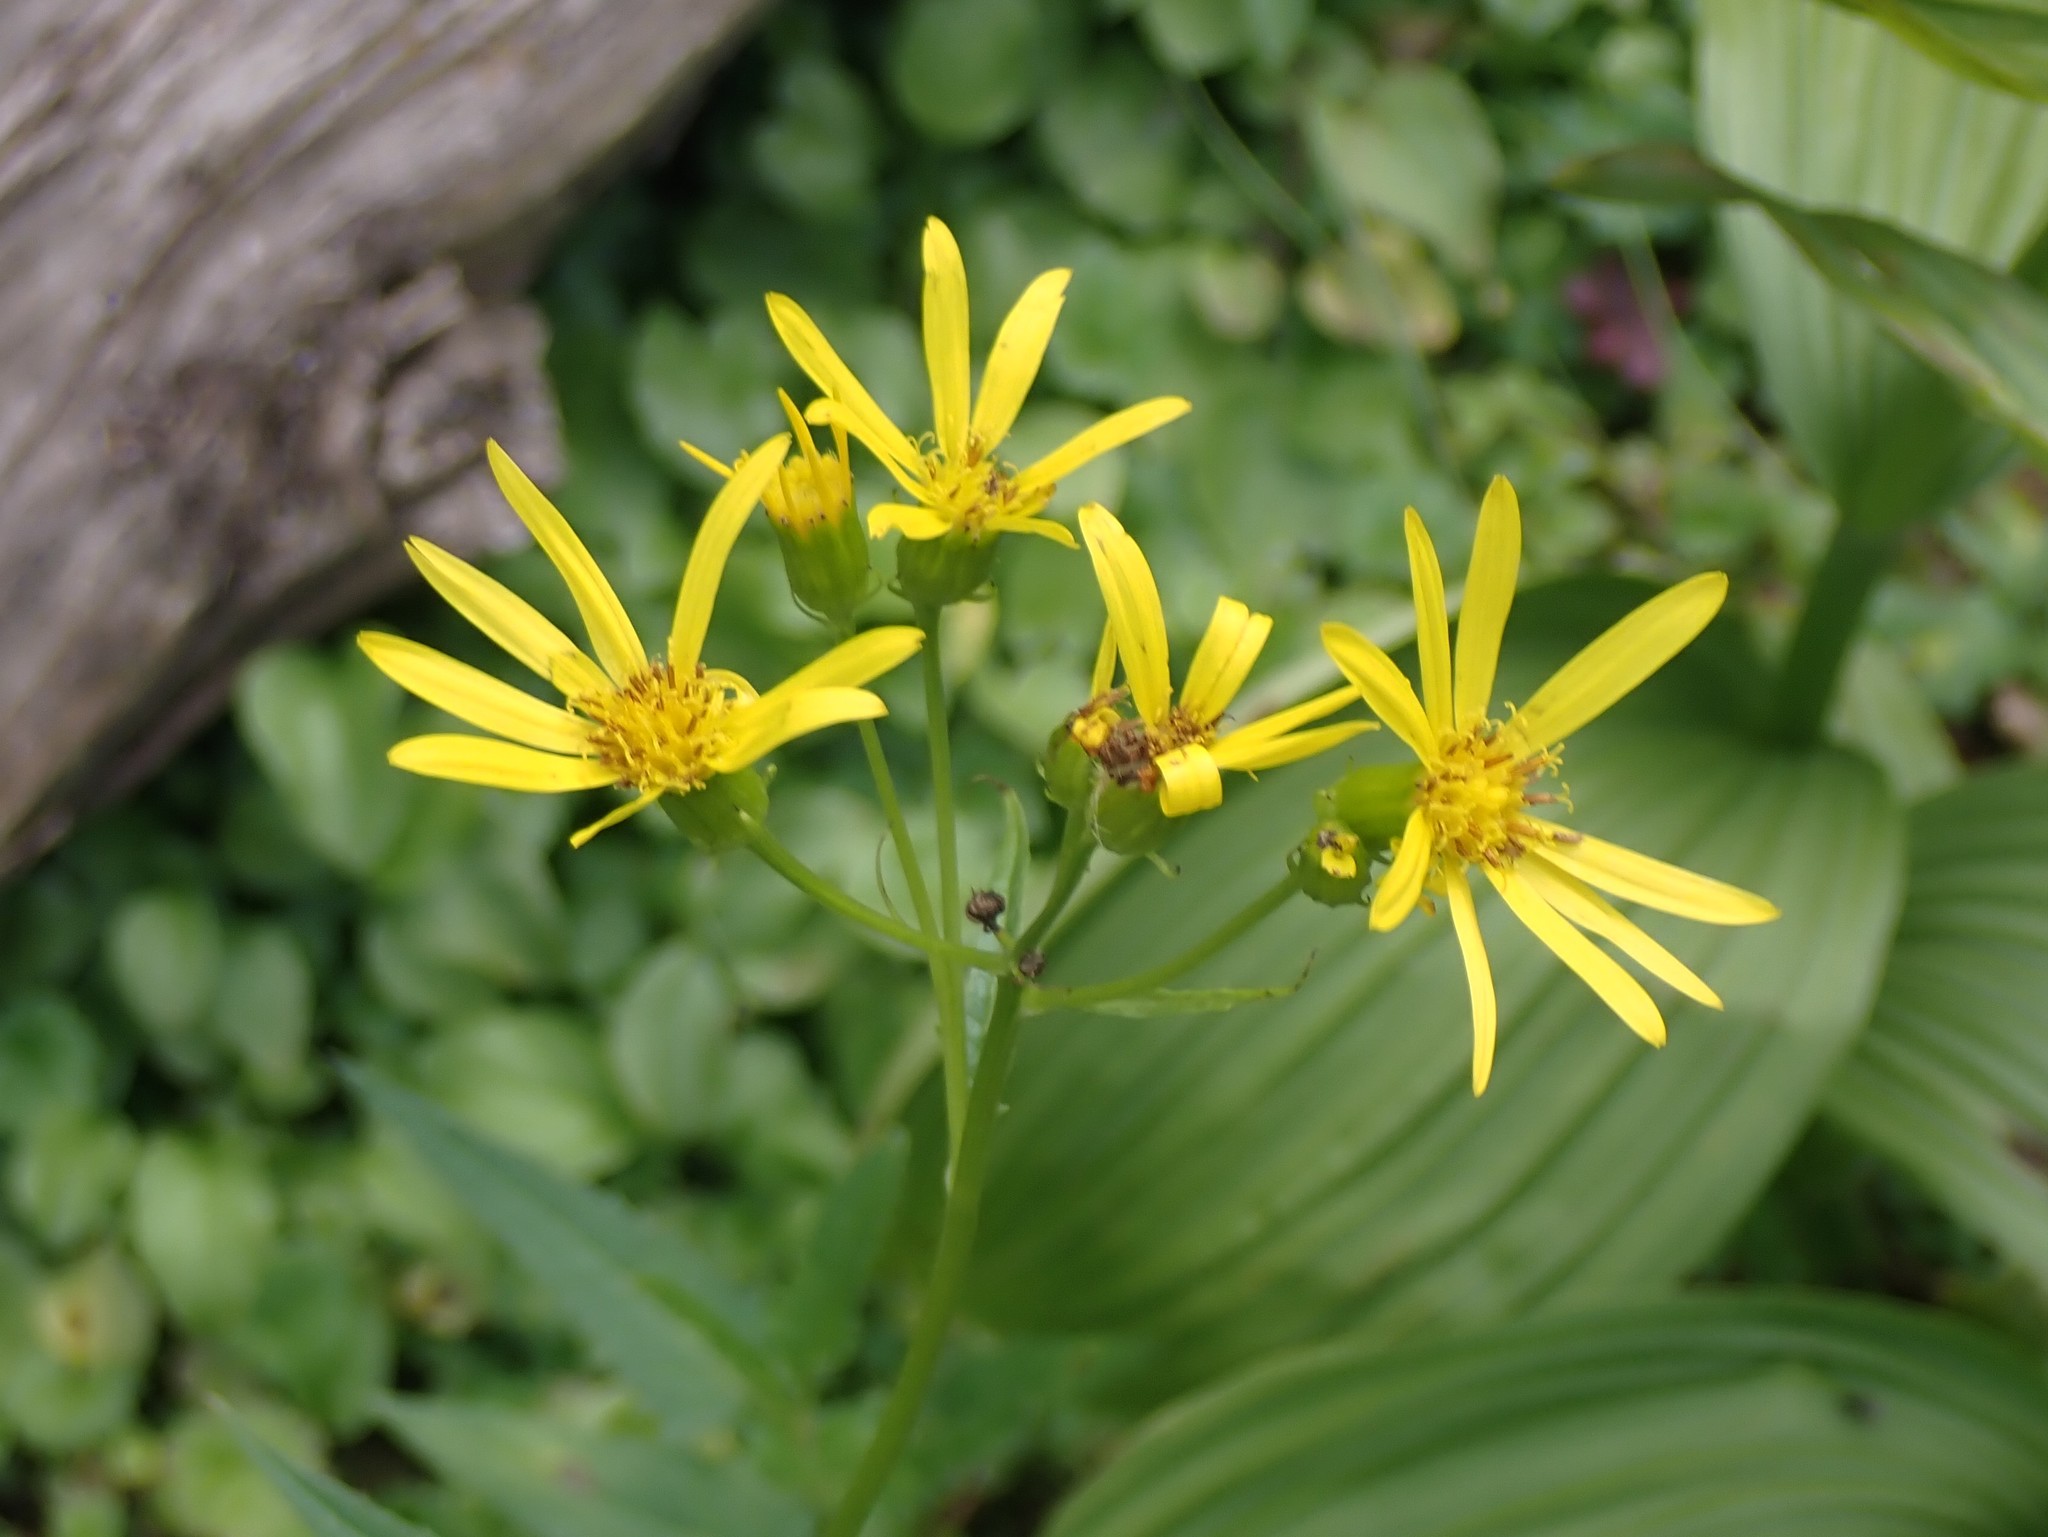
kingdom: Plantae
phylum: Tracheophyta
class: Magnoliopsida
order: Asterales
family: Asteraceae
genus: Senecio
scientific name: Senecio triangularis
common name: Arrowleaf butterweed
